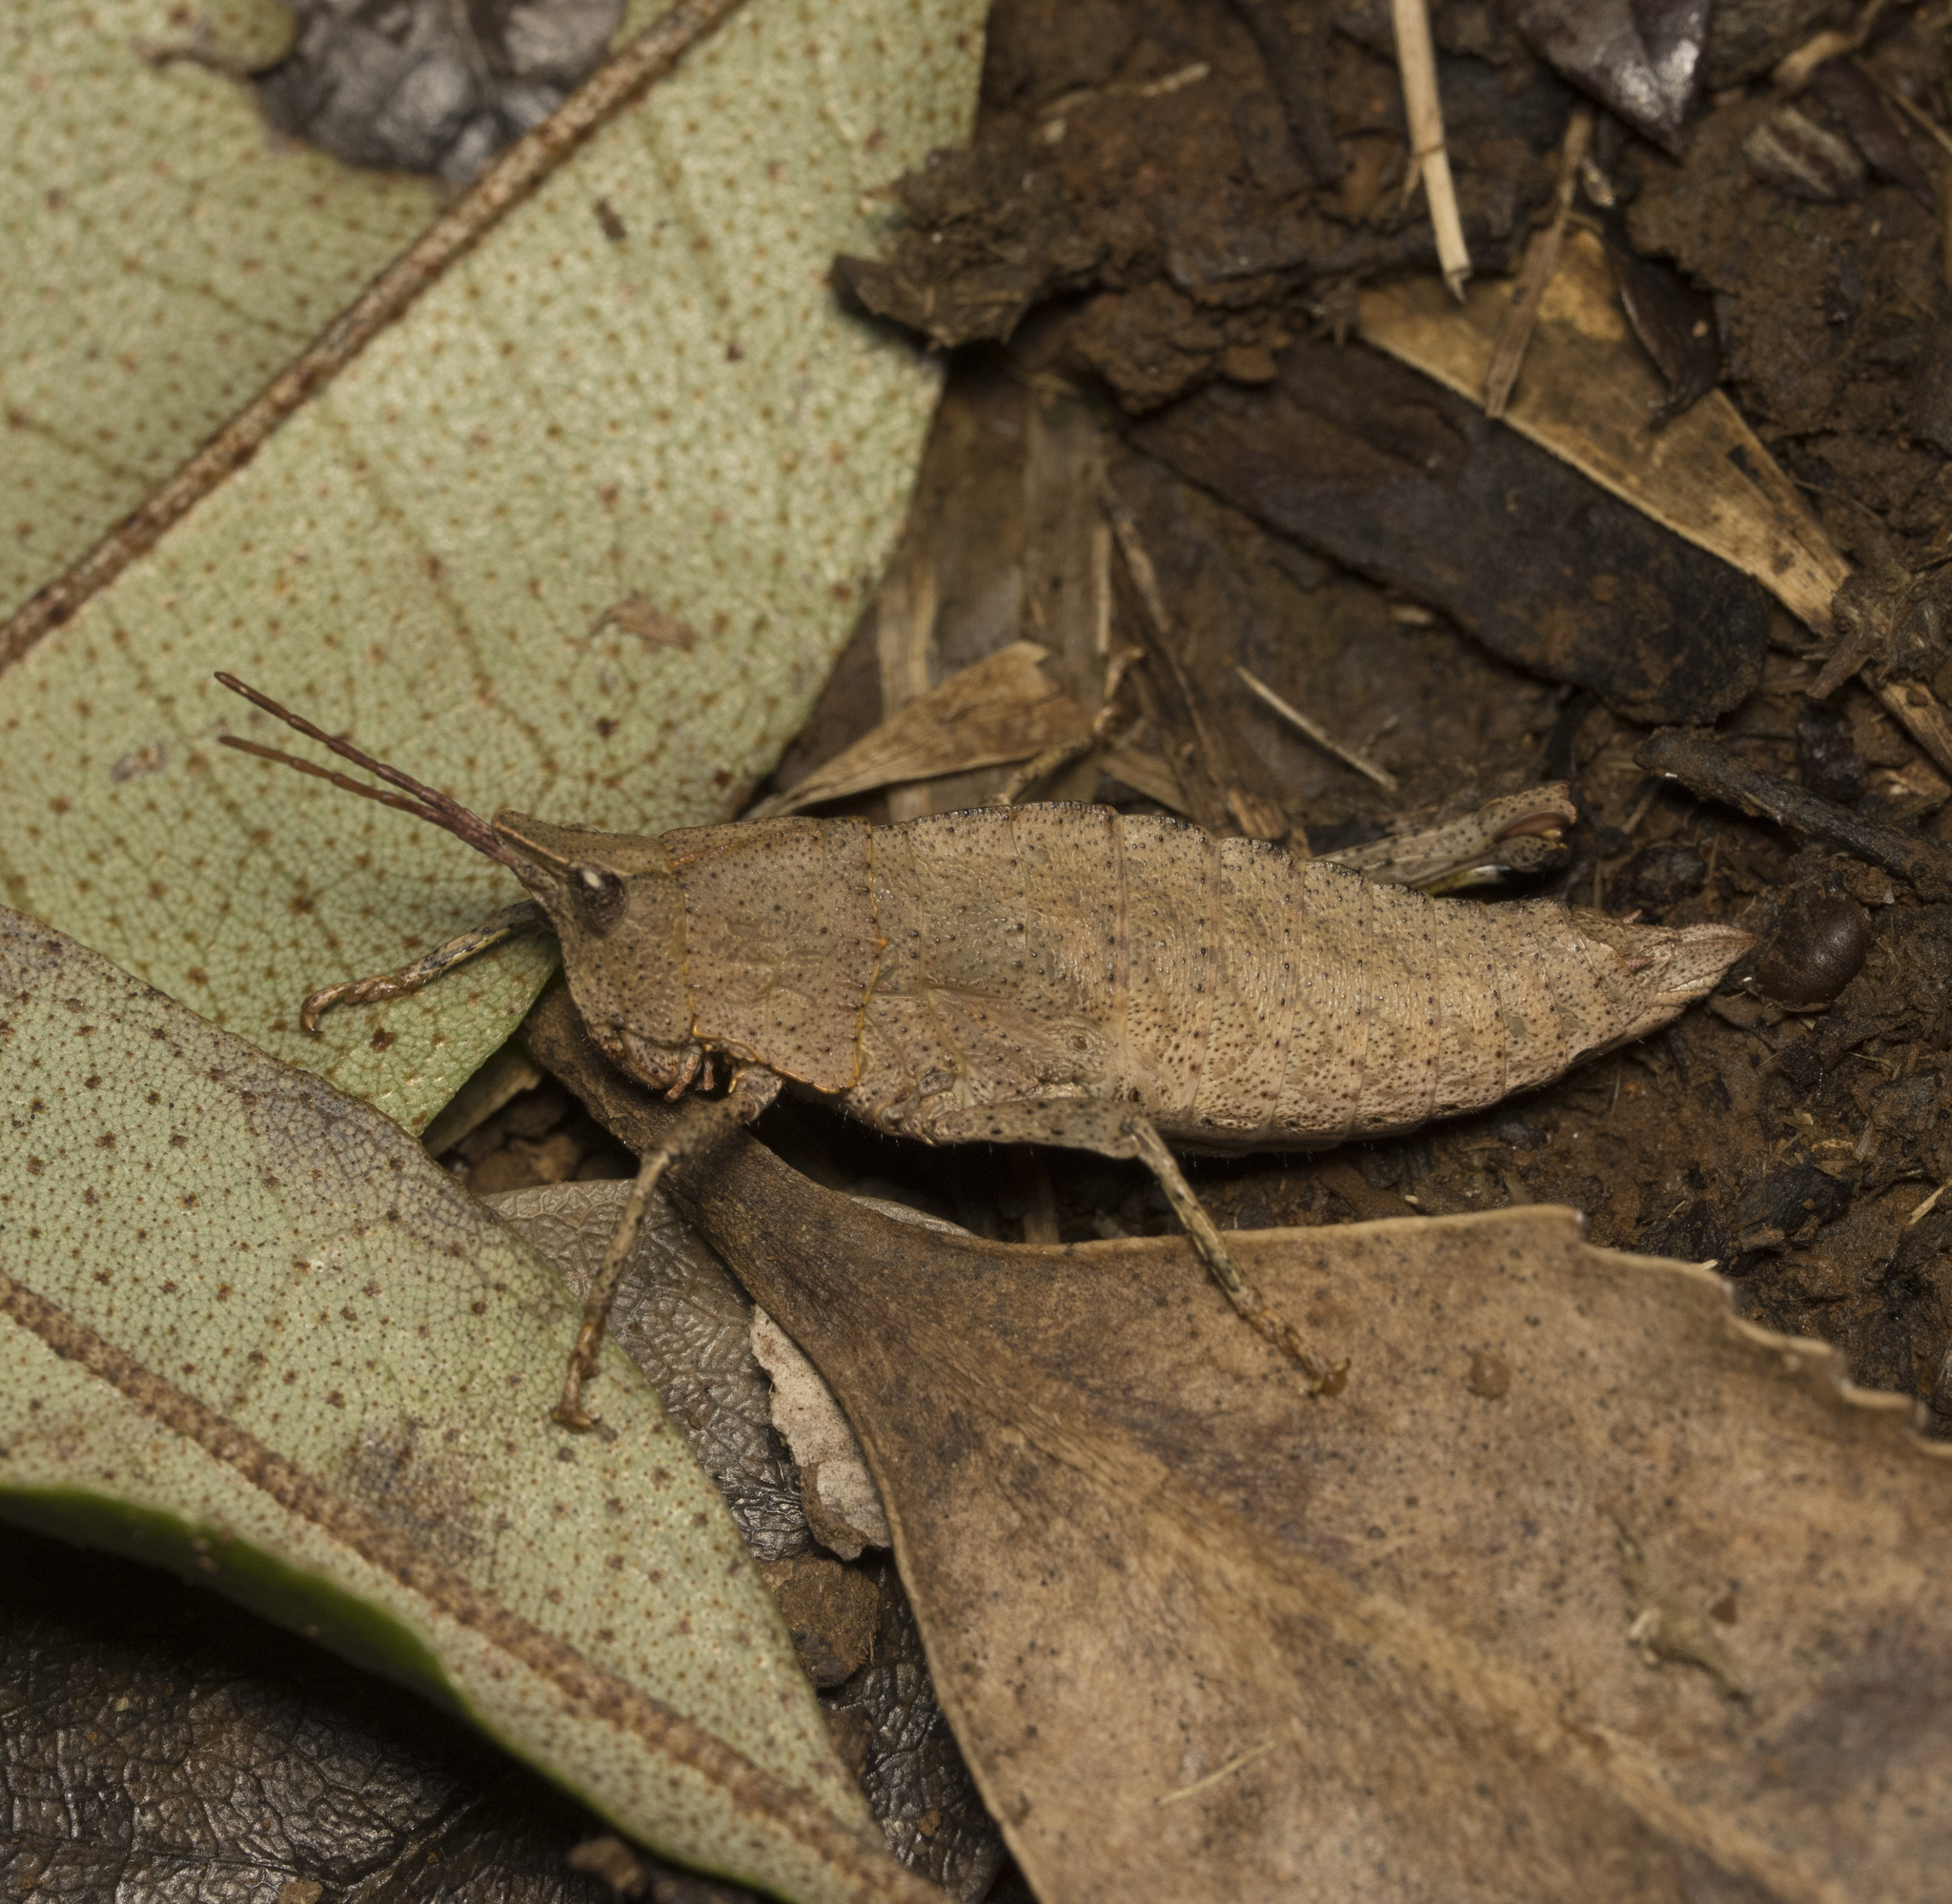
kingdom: Animalia
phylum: Arthropoda
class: Insecta
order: Orthoptera
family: Tristiridae
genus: Tropidostethus
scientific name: Tropidostethus angusticollis
